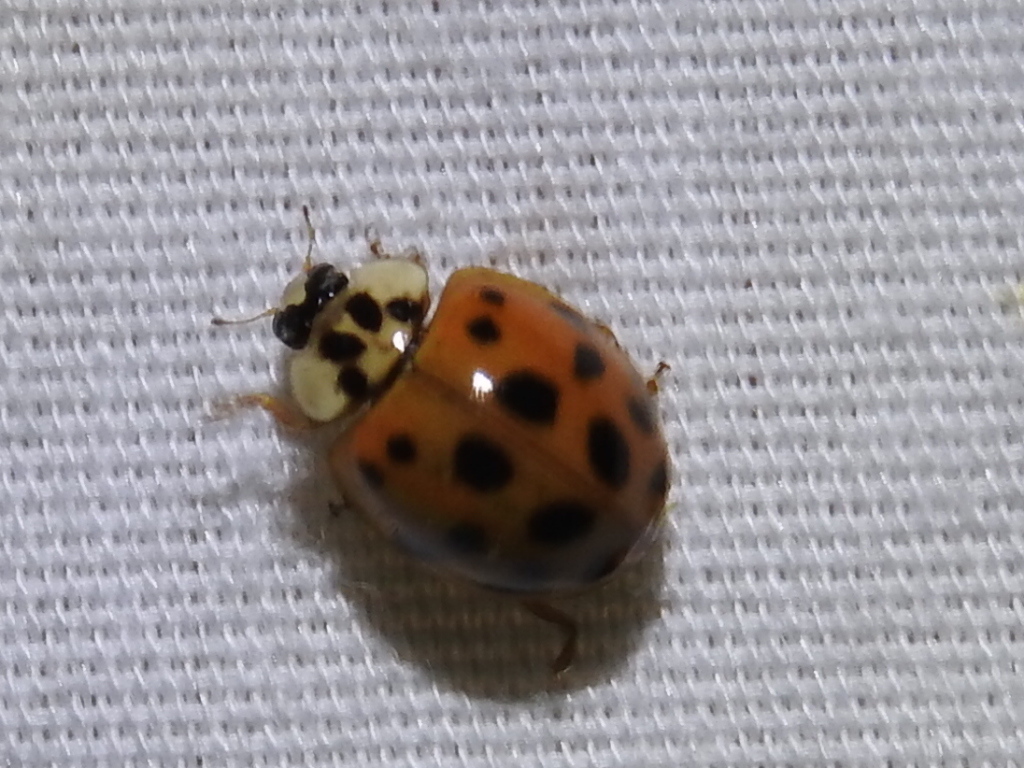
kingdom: Animalia
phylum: Arthropoda
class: Insecta
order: Coleoptera
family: Coccinellidae
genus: Harmonia
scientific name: Harmonia axyridis
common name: Harlequin ladybird
